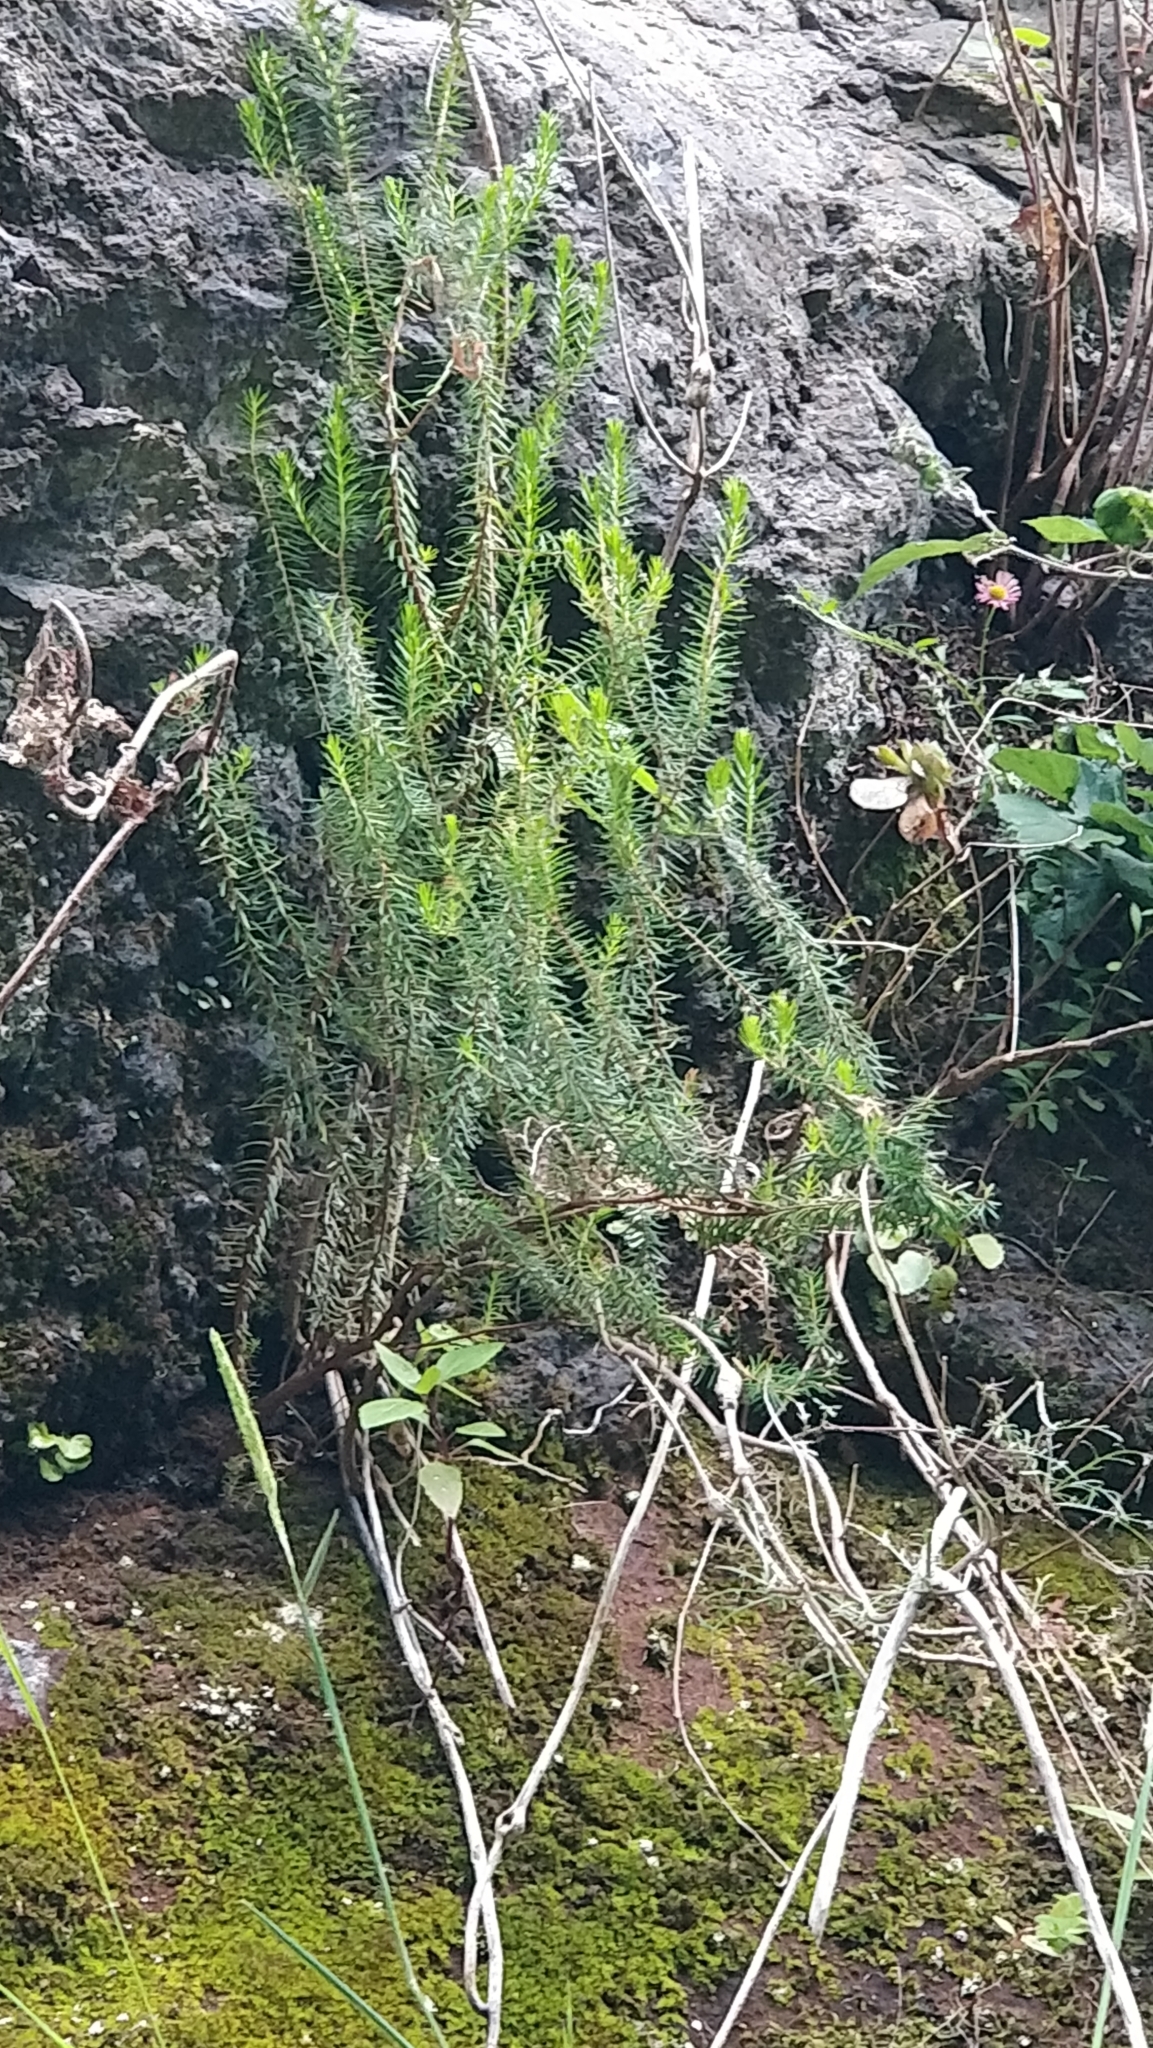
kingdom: Plantae
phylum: Tracheophyta
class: Magnoliopsida
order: Ericales
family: Ericaceae
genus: Erica
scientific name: Erica platycodon
